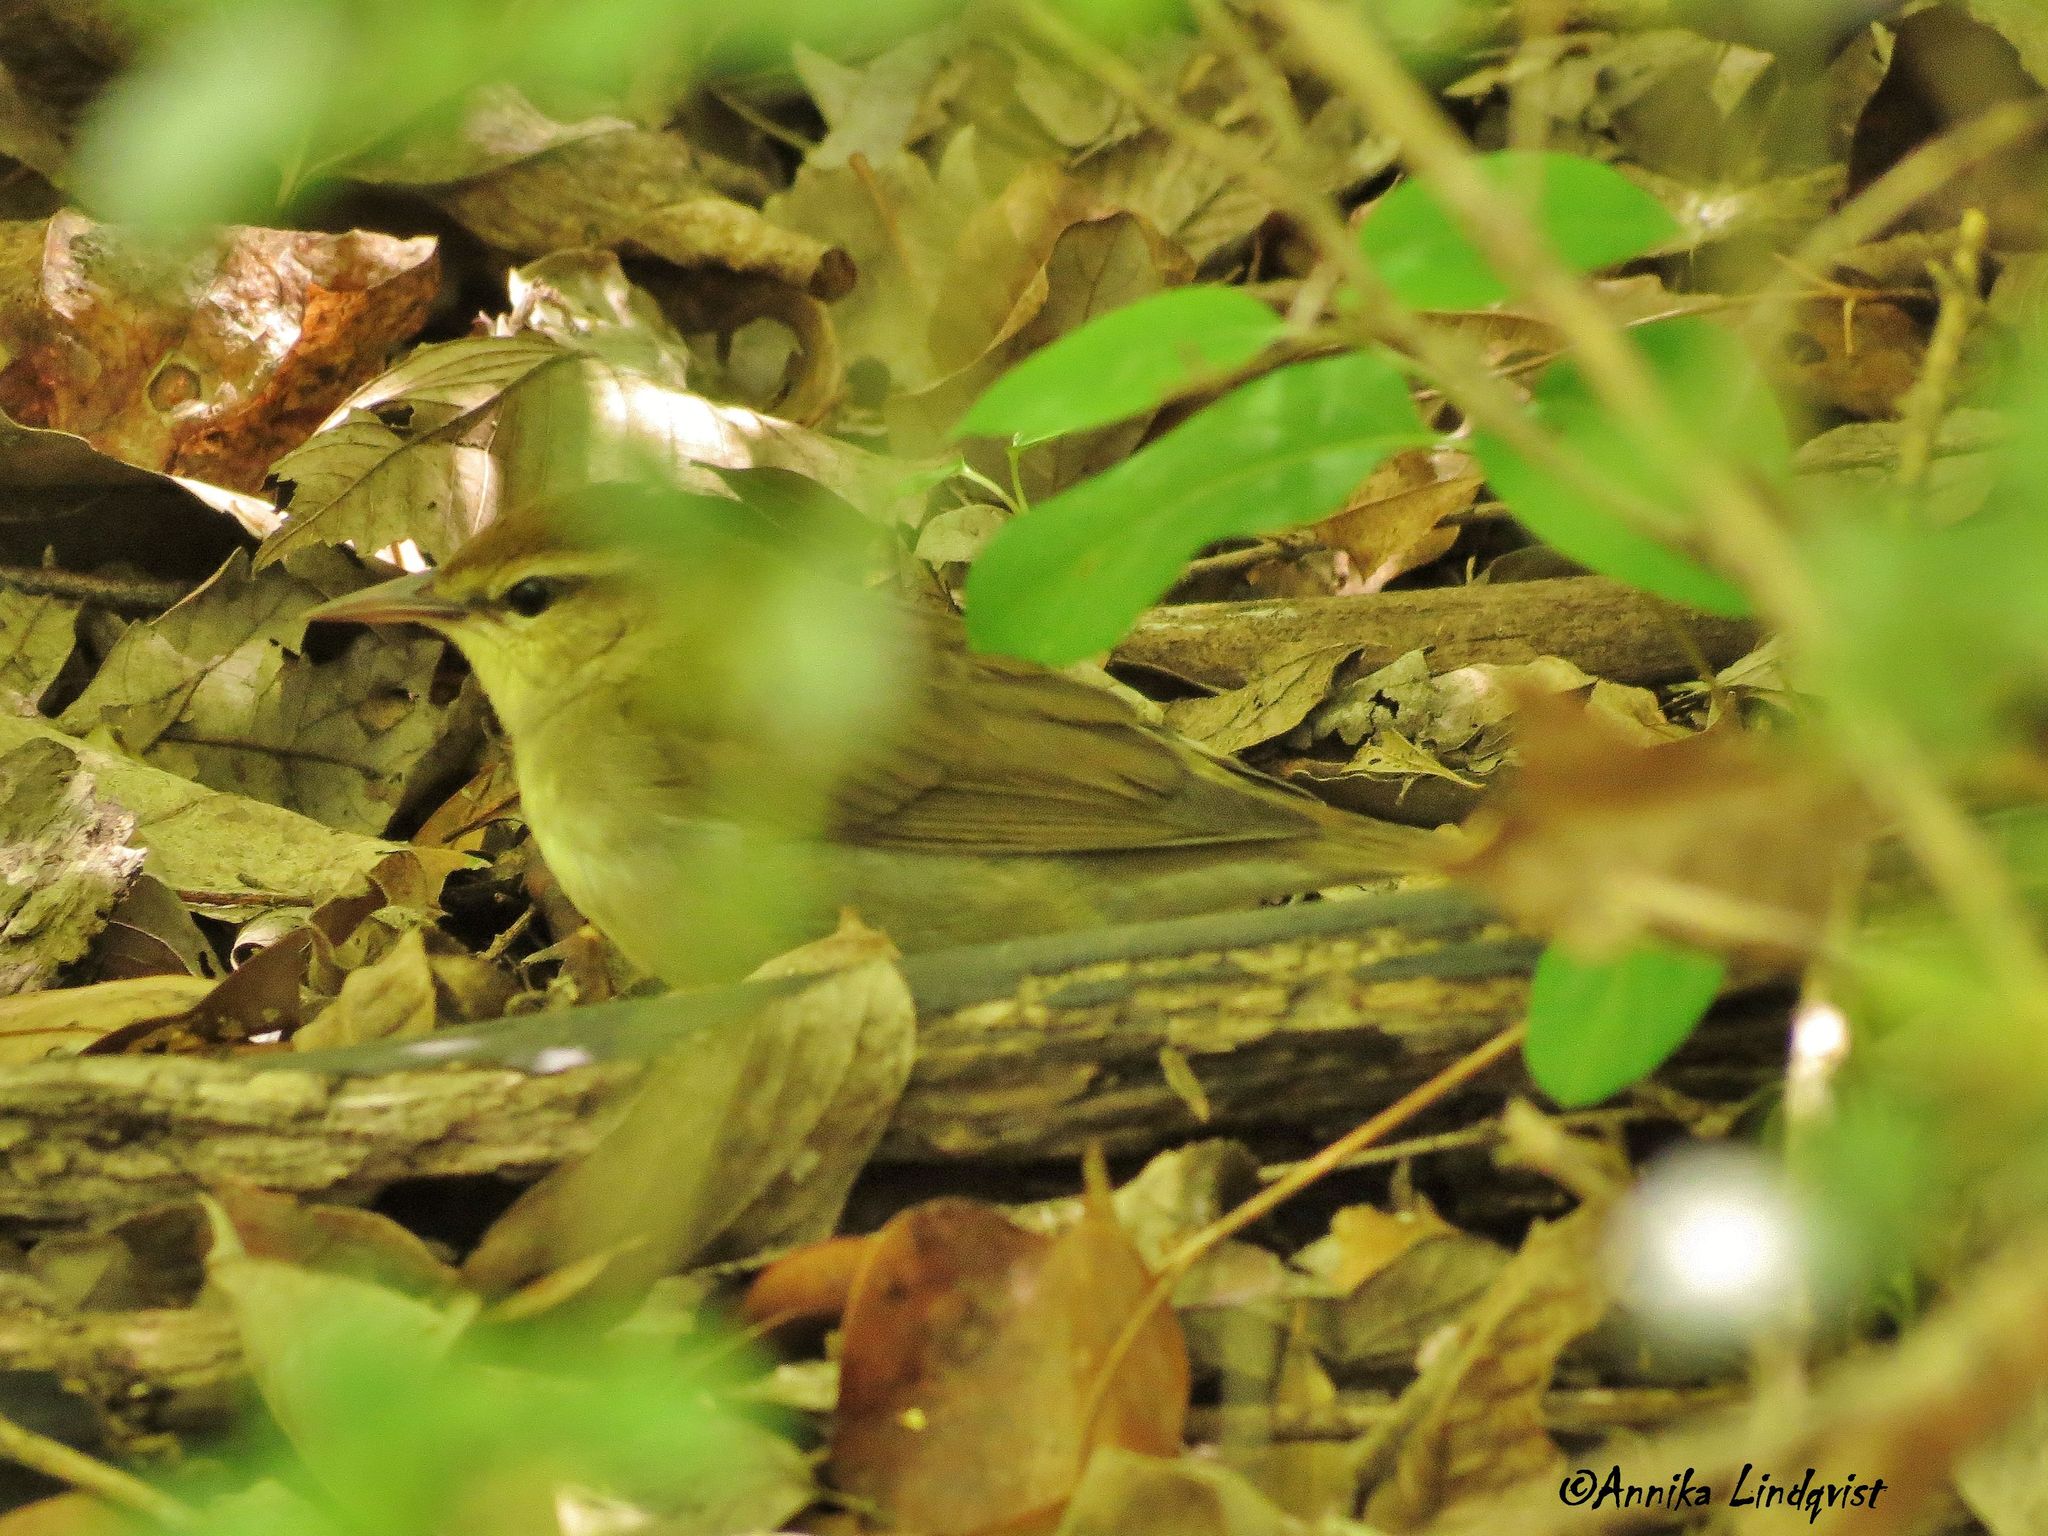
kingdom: Animalia
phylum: Chordata
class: Aves
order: Passeriformes
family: Parulidae
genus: Limnothlypis
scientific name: Limnothlypis swainsonii
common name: Swainson's warbler
